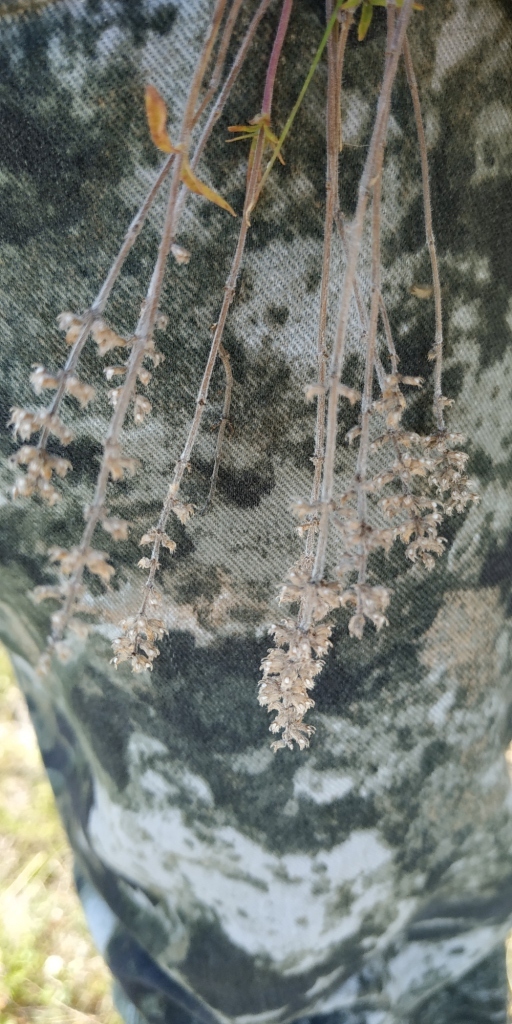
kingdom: Plantae
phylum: Tracheophyta
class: Magnoliopsida
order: Lamiales
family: Lamiaceae
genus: Thymus
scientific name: Thymus pannonicus
